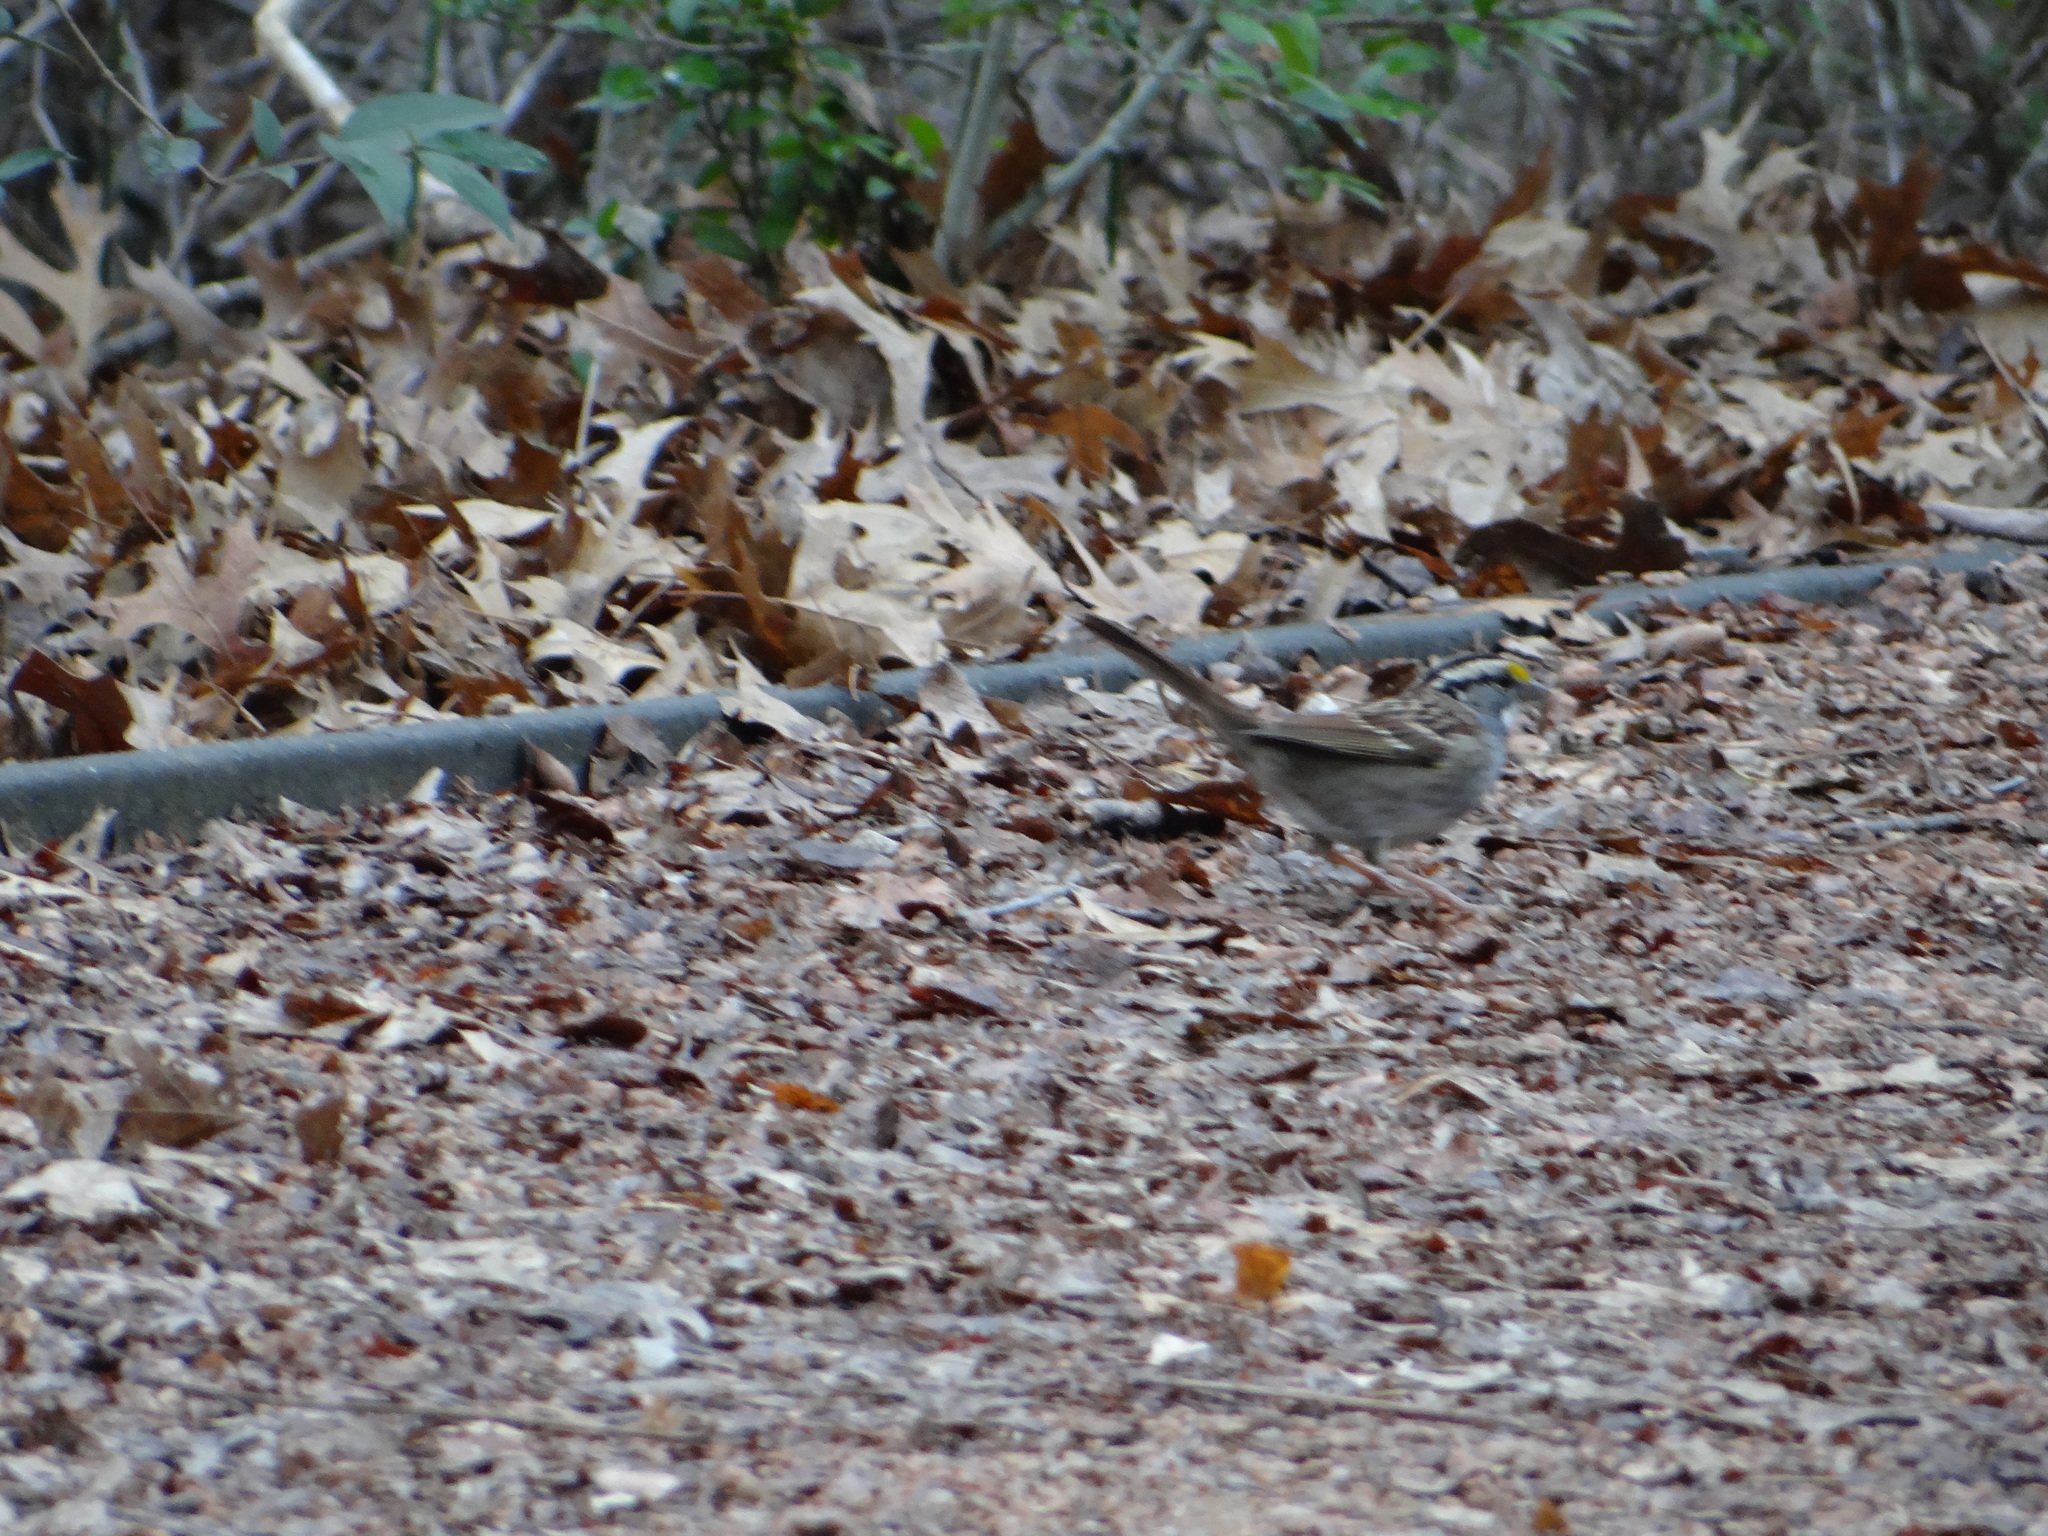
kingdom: Animalia
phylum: Chordata
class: Aves
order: Passeriformes
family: Passerellidae
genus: Zonotrichia
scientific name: Zonotrichia albicollis
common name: White-throated sparrow
